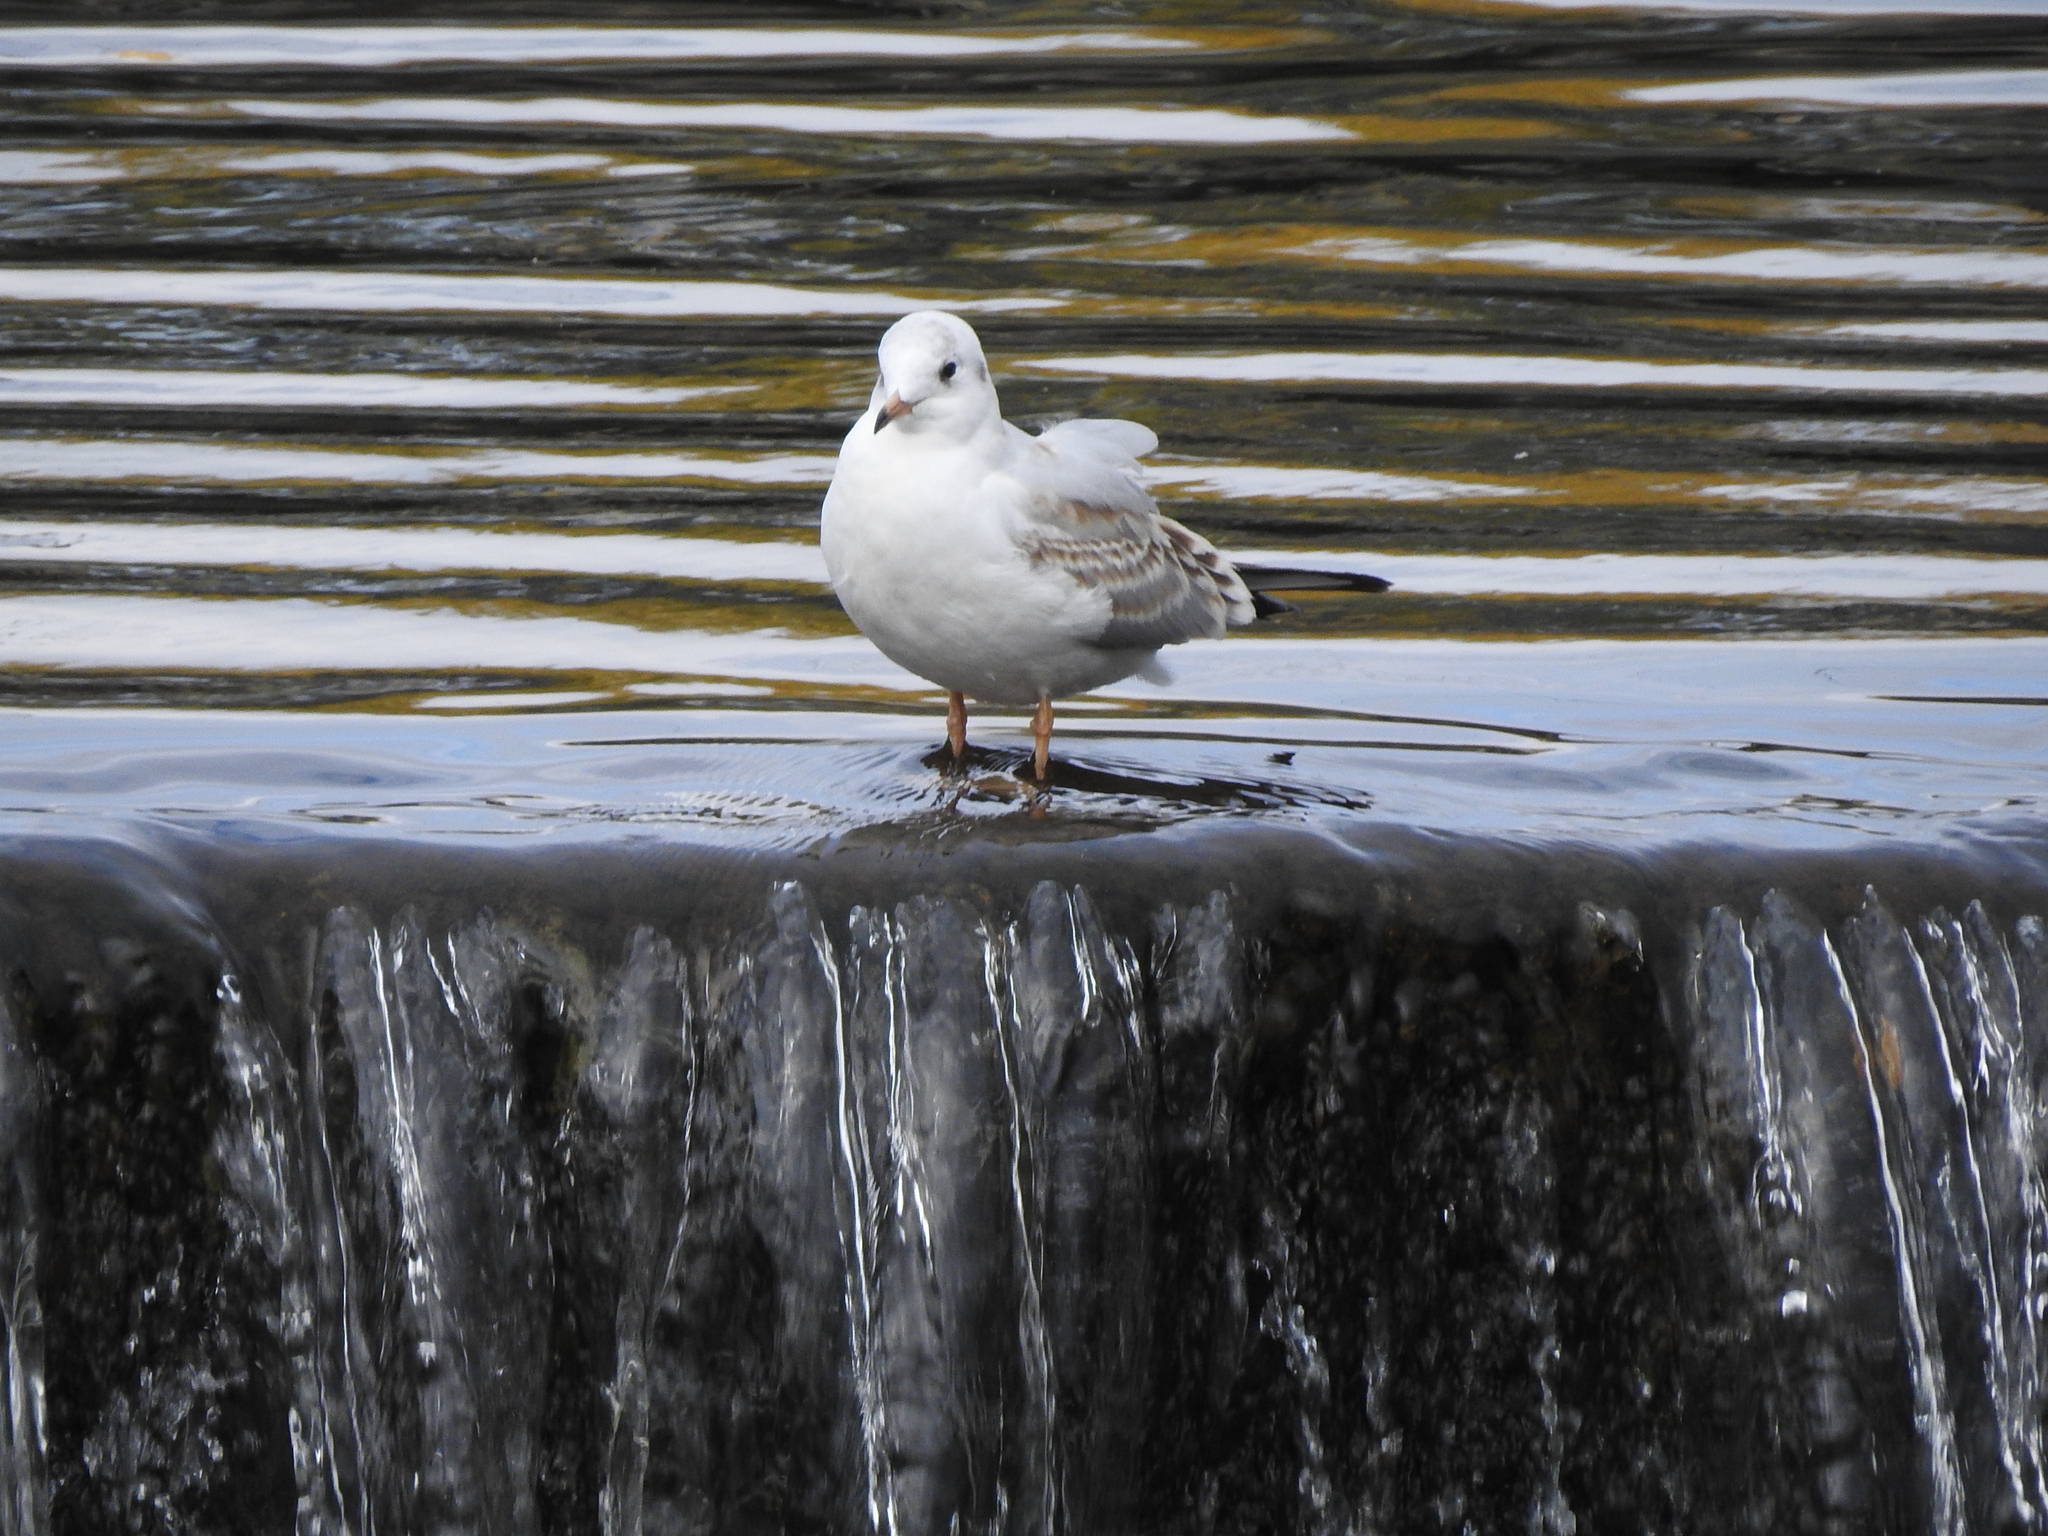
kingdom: Animalia
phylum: Chordata
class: Aves
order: Charadriiformes
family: Laridae
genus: Chroicocephalus
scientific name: Chroicocephalus ridibundus
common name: Black-headed gull
